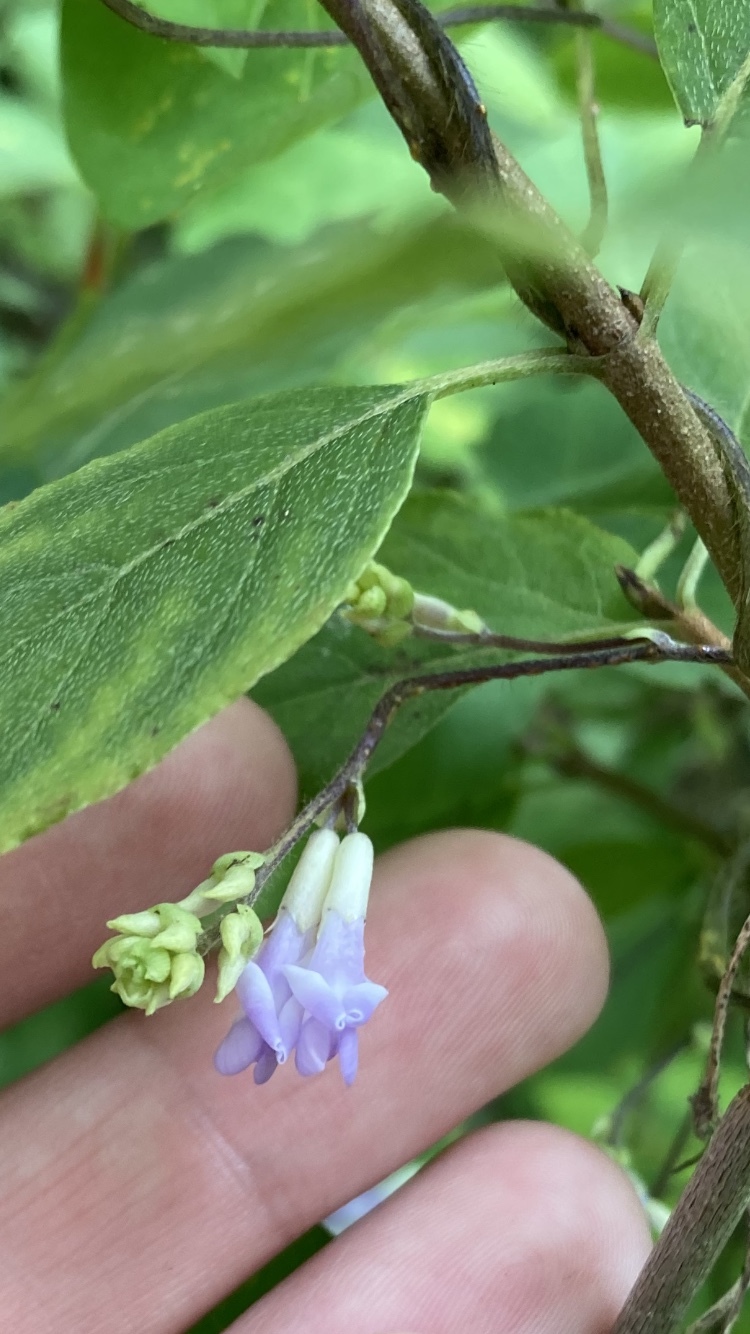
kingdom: Plantae
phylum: Tracheophyta
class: Magnoliopsida
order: Fabales
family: Fabaceae
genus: Amphicarpaea
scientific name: Amphicarpaea bracteata
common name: American hog peanut
